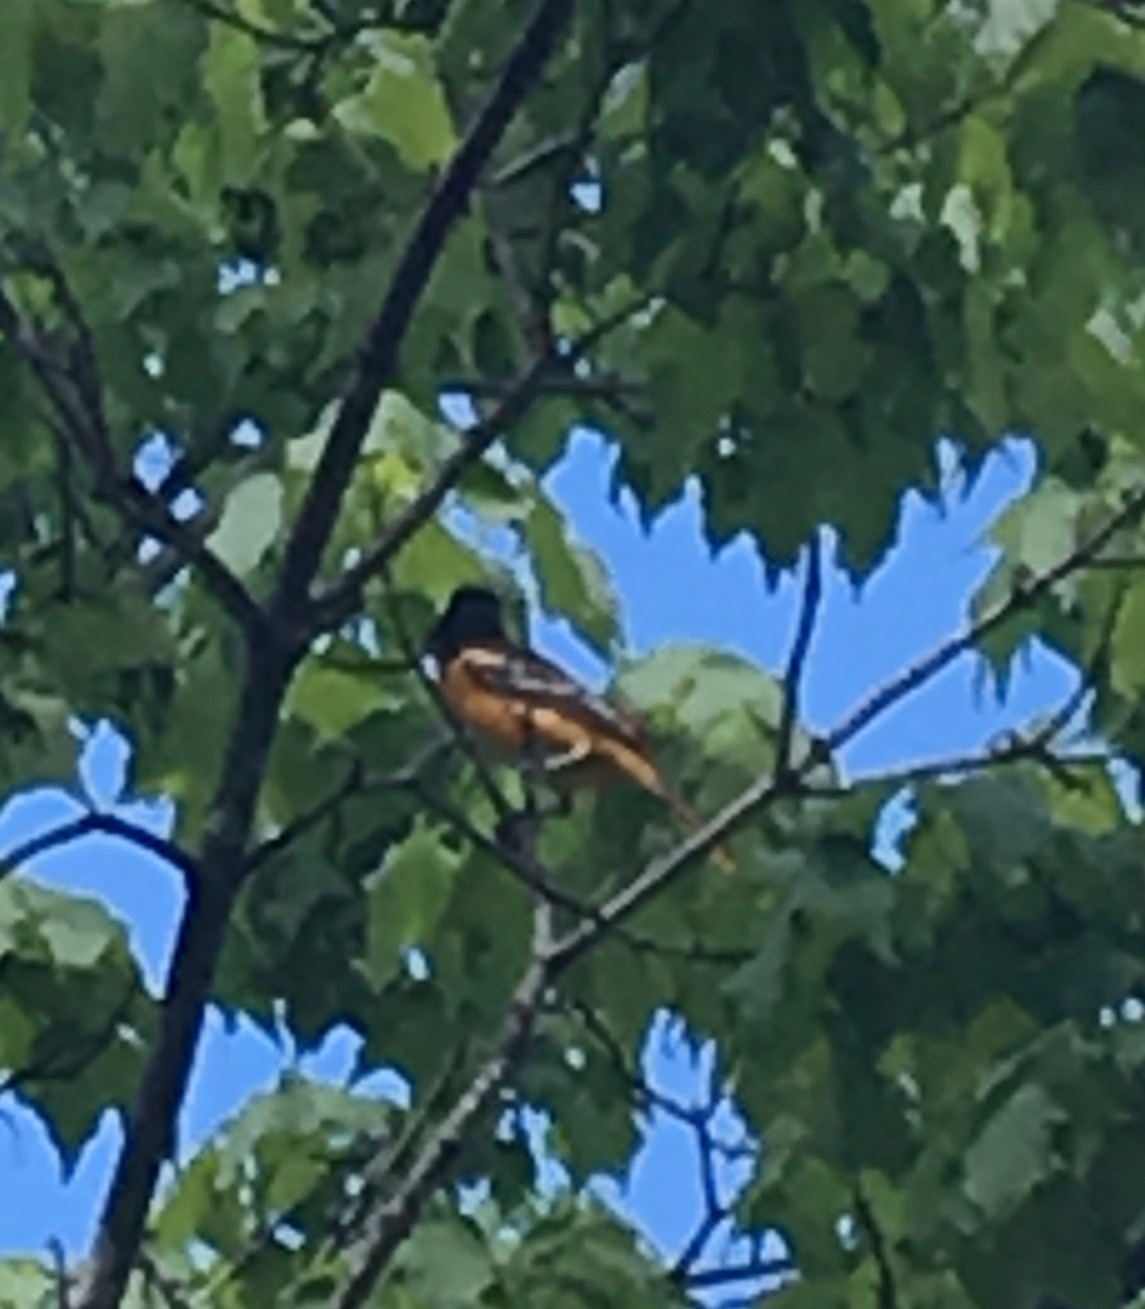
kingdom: Animalia
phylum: Chordata
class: Aves
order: Passeriformes
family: Icteridae
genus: Icterus
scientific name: Icterus galbula
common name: Baltimore oriole
